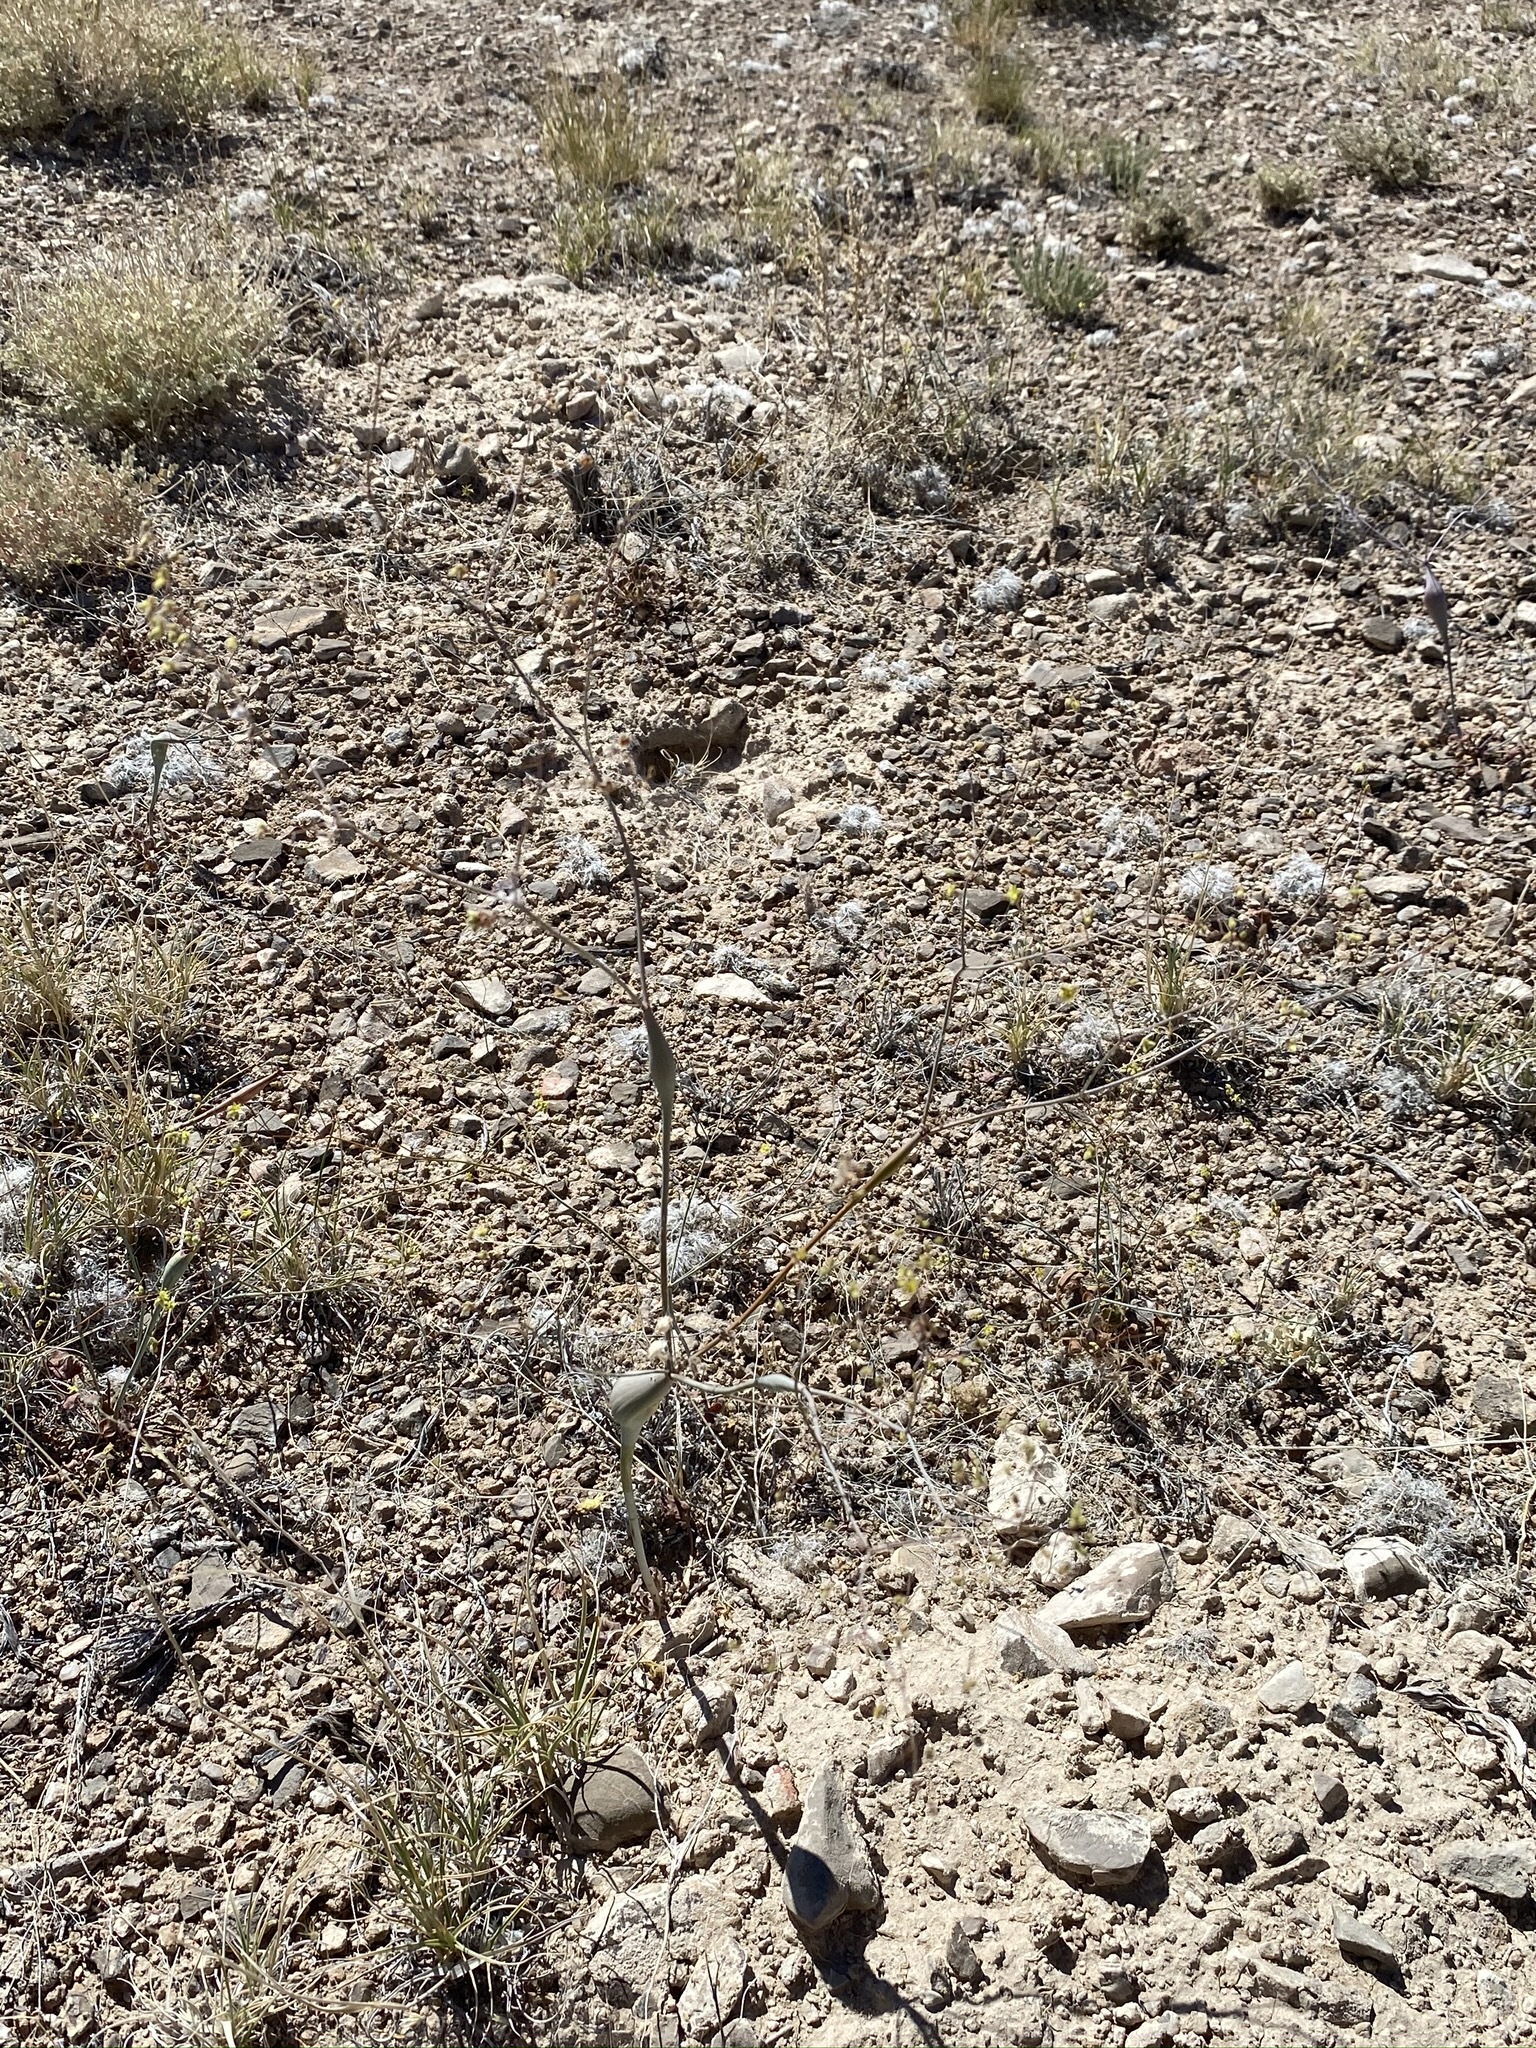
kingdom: Plantae
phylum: Tracheophyta
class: Magnoliopsida
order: Caryophyllales
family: Polygonaceae
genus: Eriogonum
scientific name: Eriogonum trichopes
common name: Little desert trumpet
